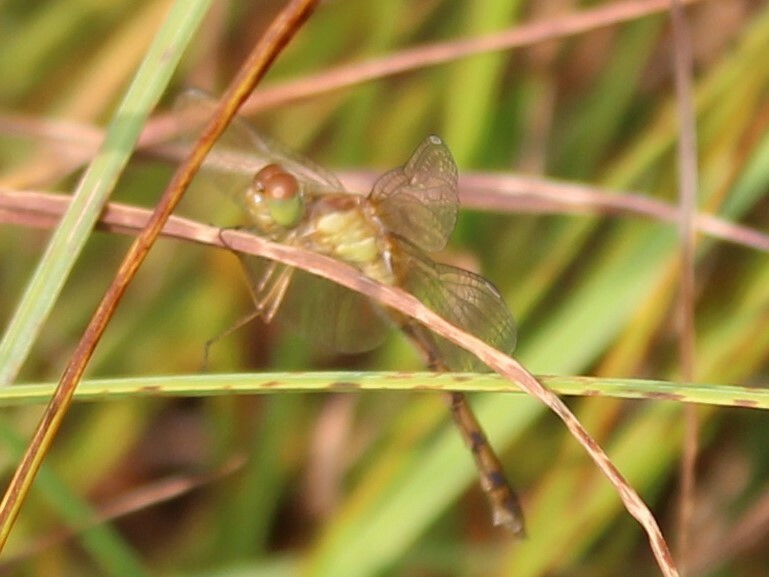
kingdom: Animalia
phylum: Arthropoda
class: Insecta
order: Odonata
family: Libellulidae
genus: Sympetrum
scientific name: Sympetrum vicinum
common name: Autumn meadowhawk
